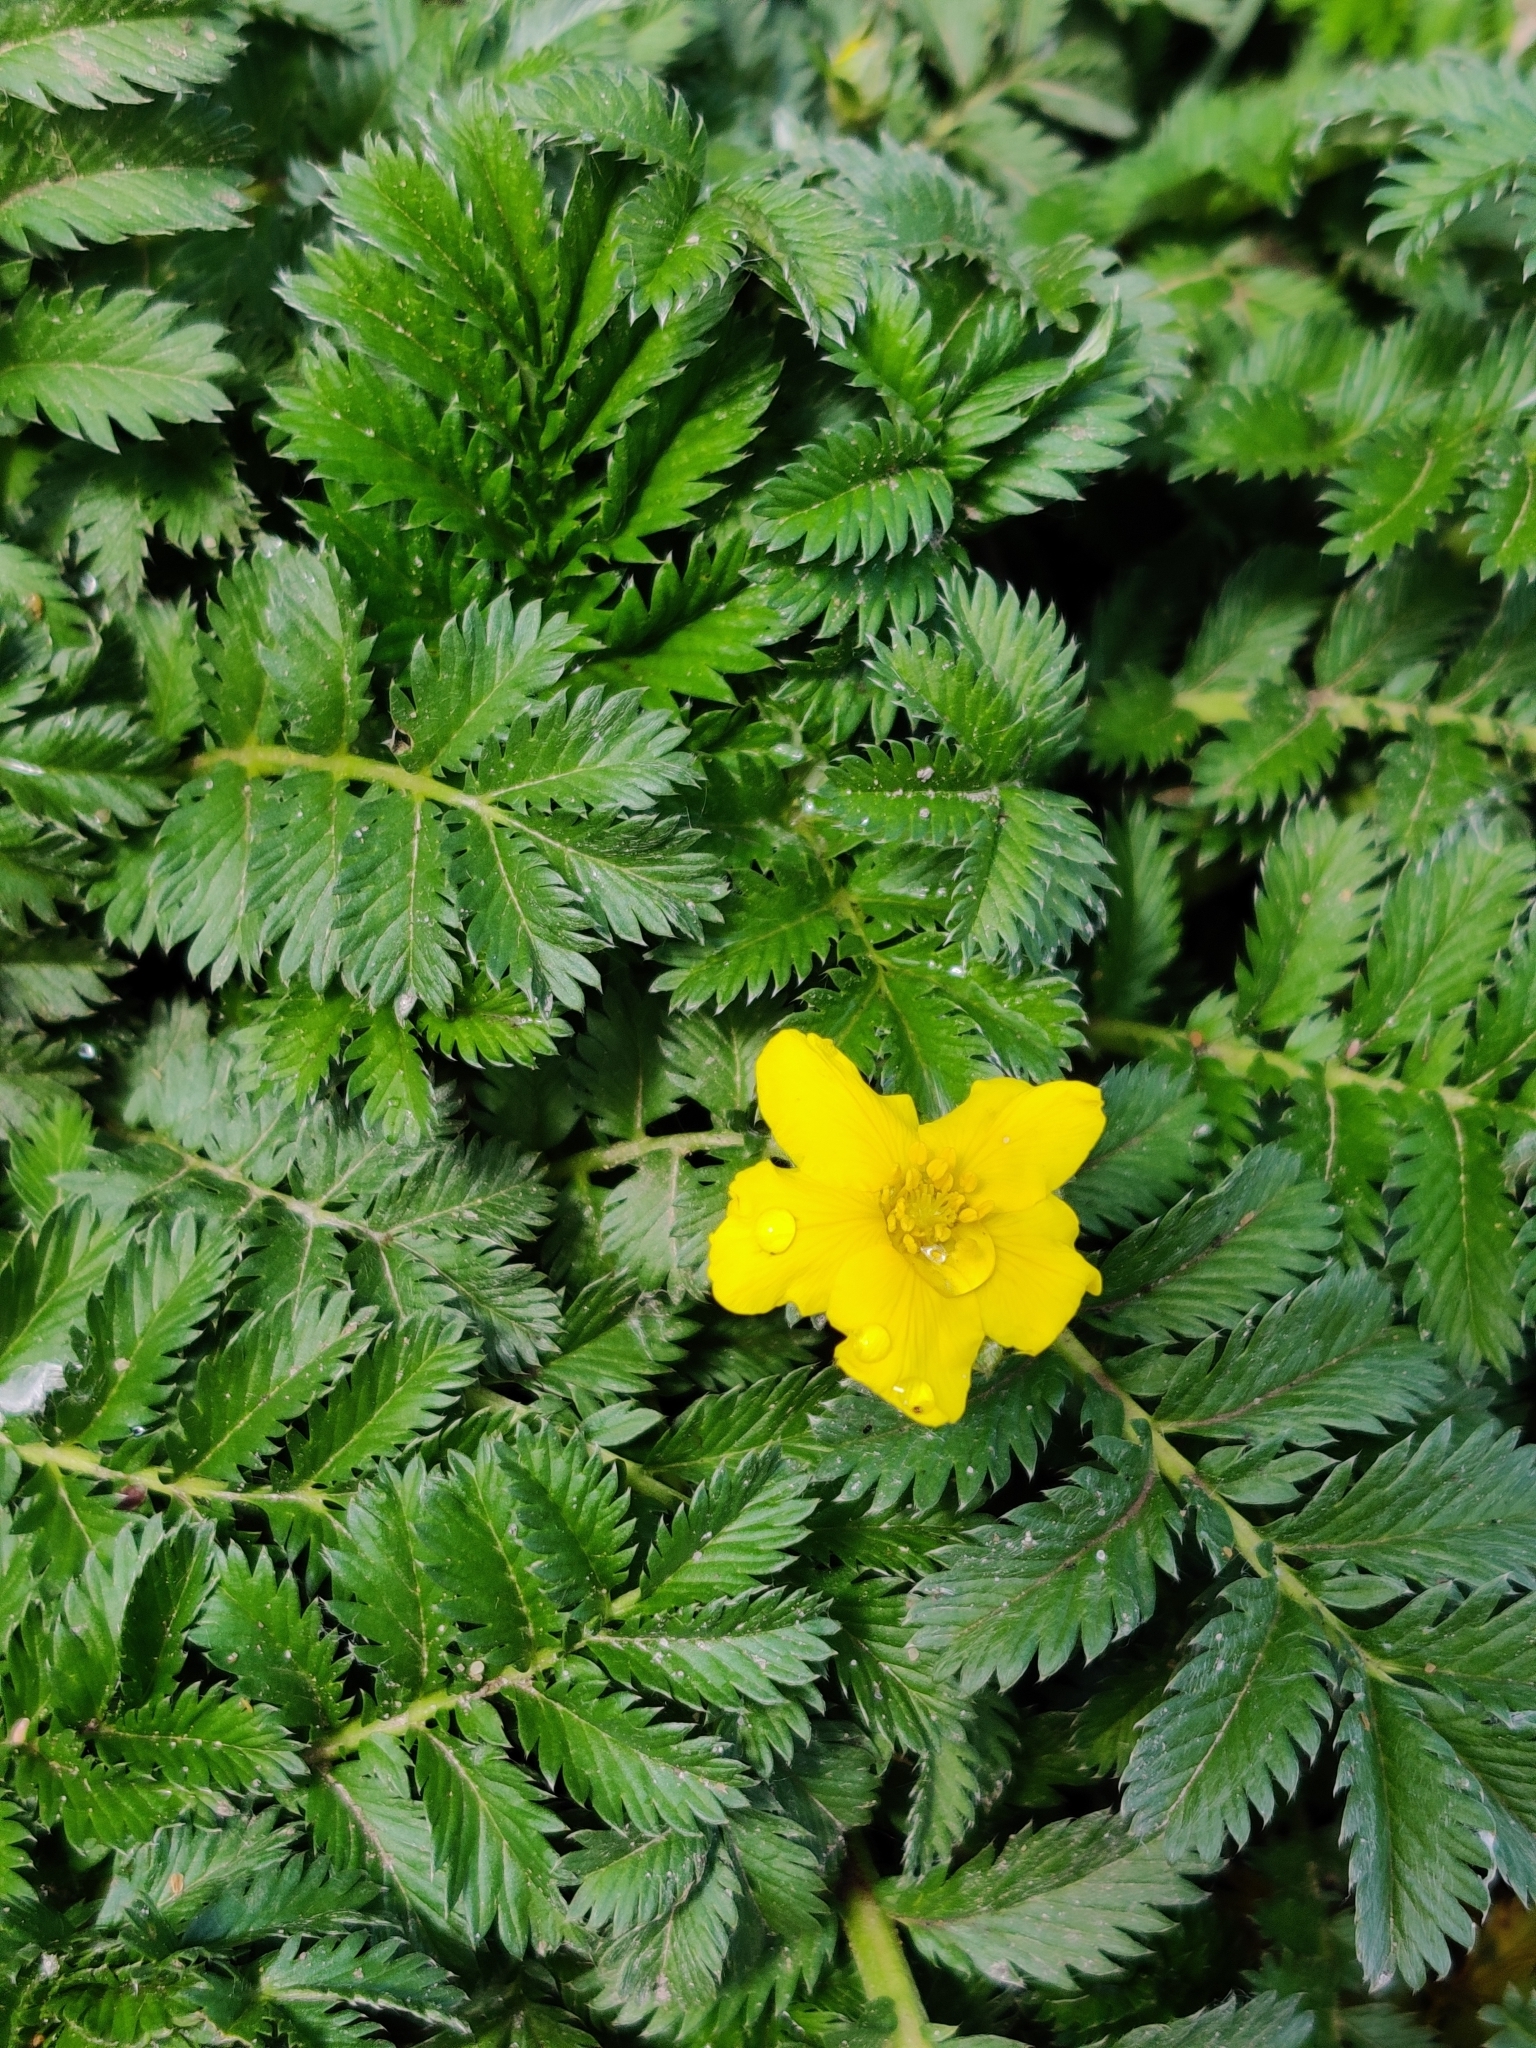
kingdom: Plantae
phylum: Tracheophyta
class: Magnoliopsida
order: Rosales
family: Rosaceae
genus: Argentina
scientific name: Argentina anserina
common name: Common silverweed
